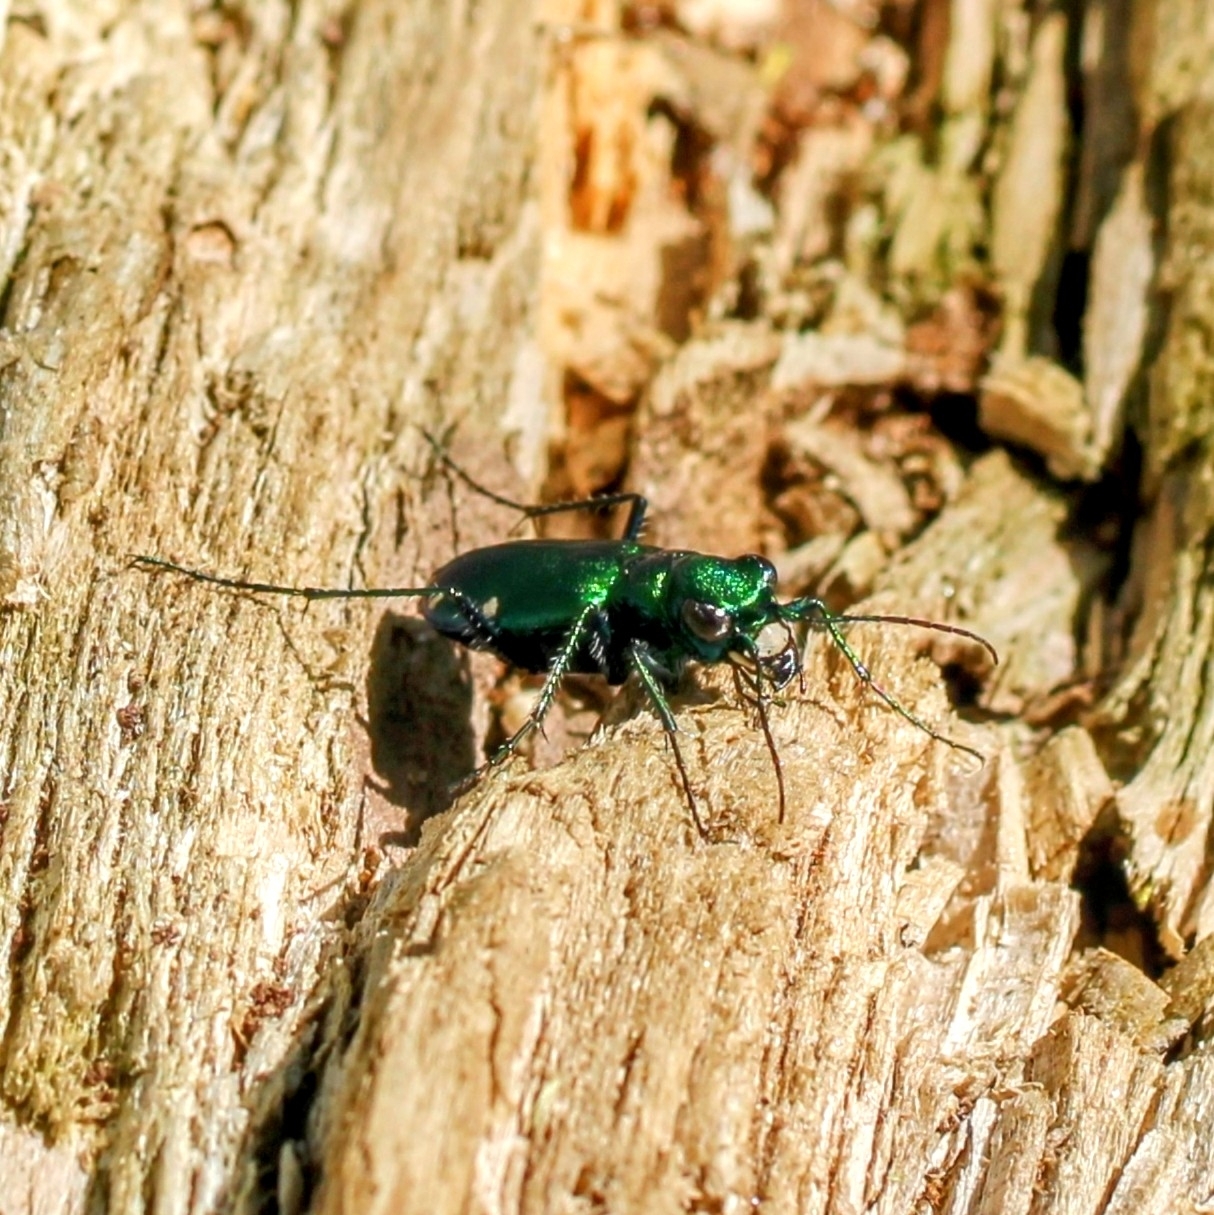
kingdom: Animalia
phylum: Arthropoda
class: Insecta
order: Coleoptera
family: Carabidae
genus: Cicindela
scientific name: Cicindela sexguttata
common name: Six-spotted tiger beetle
